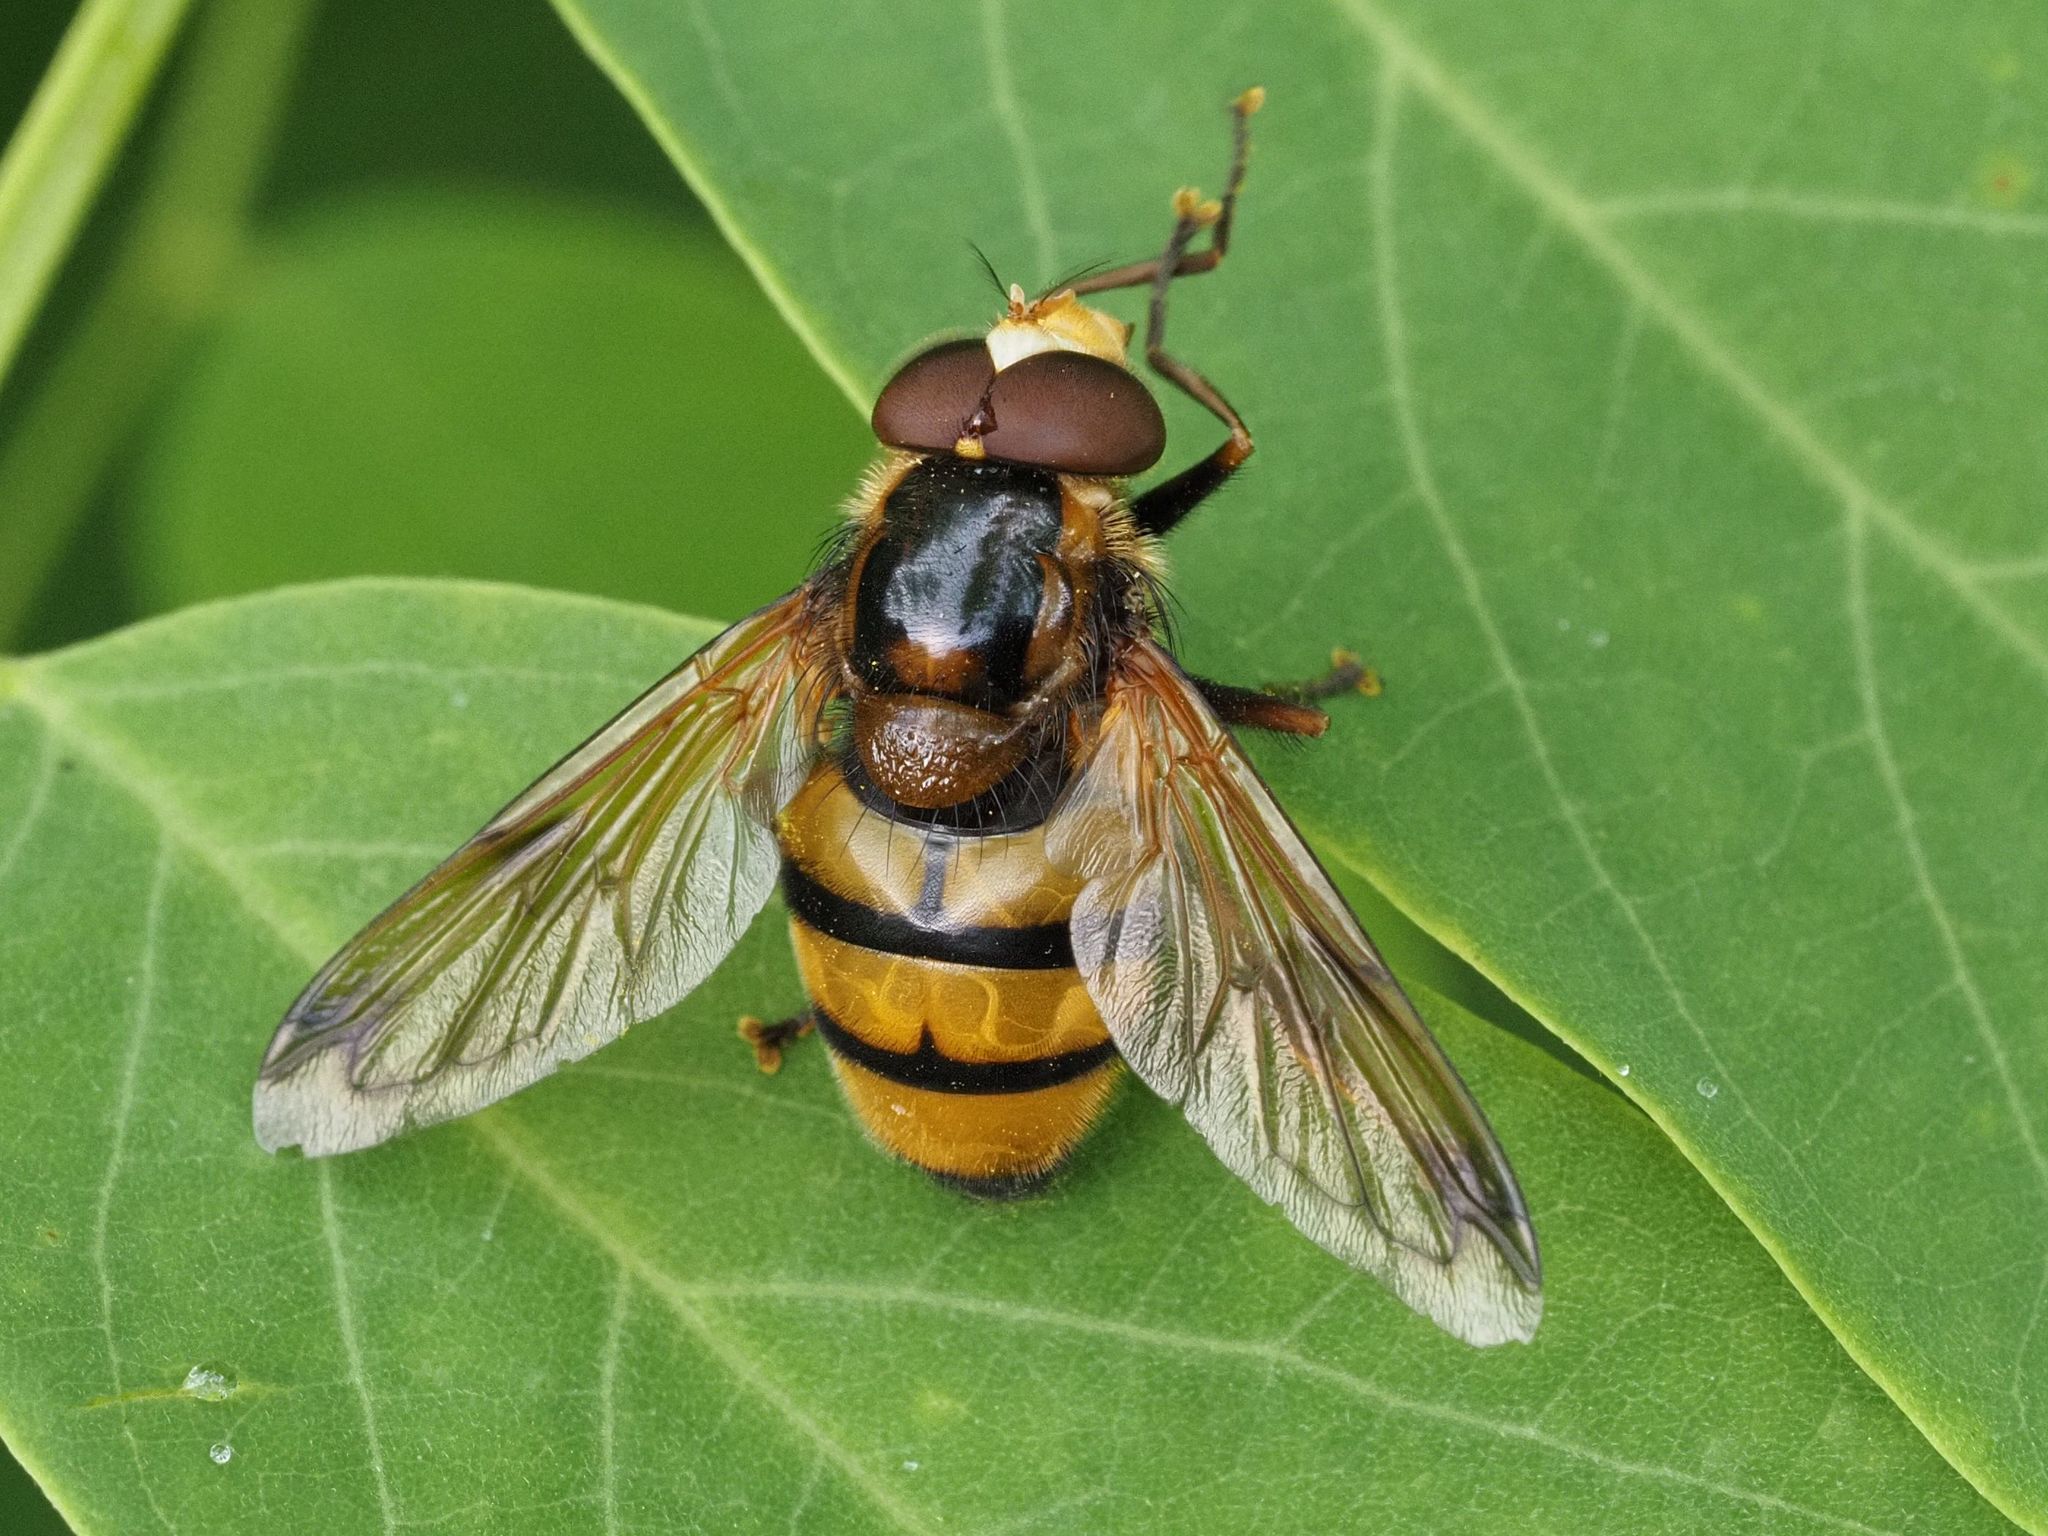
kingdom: Animalia
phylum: Arthropoda
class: Insecta
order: Diptera
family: Syrphidae
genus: Volucella
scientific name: Volucella inanis
